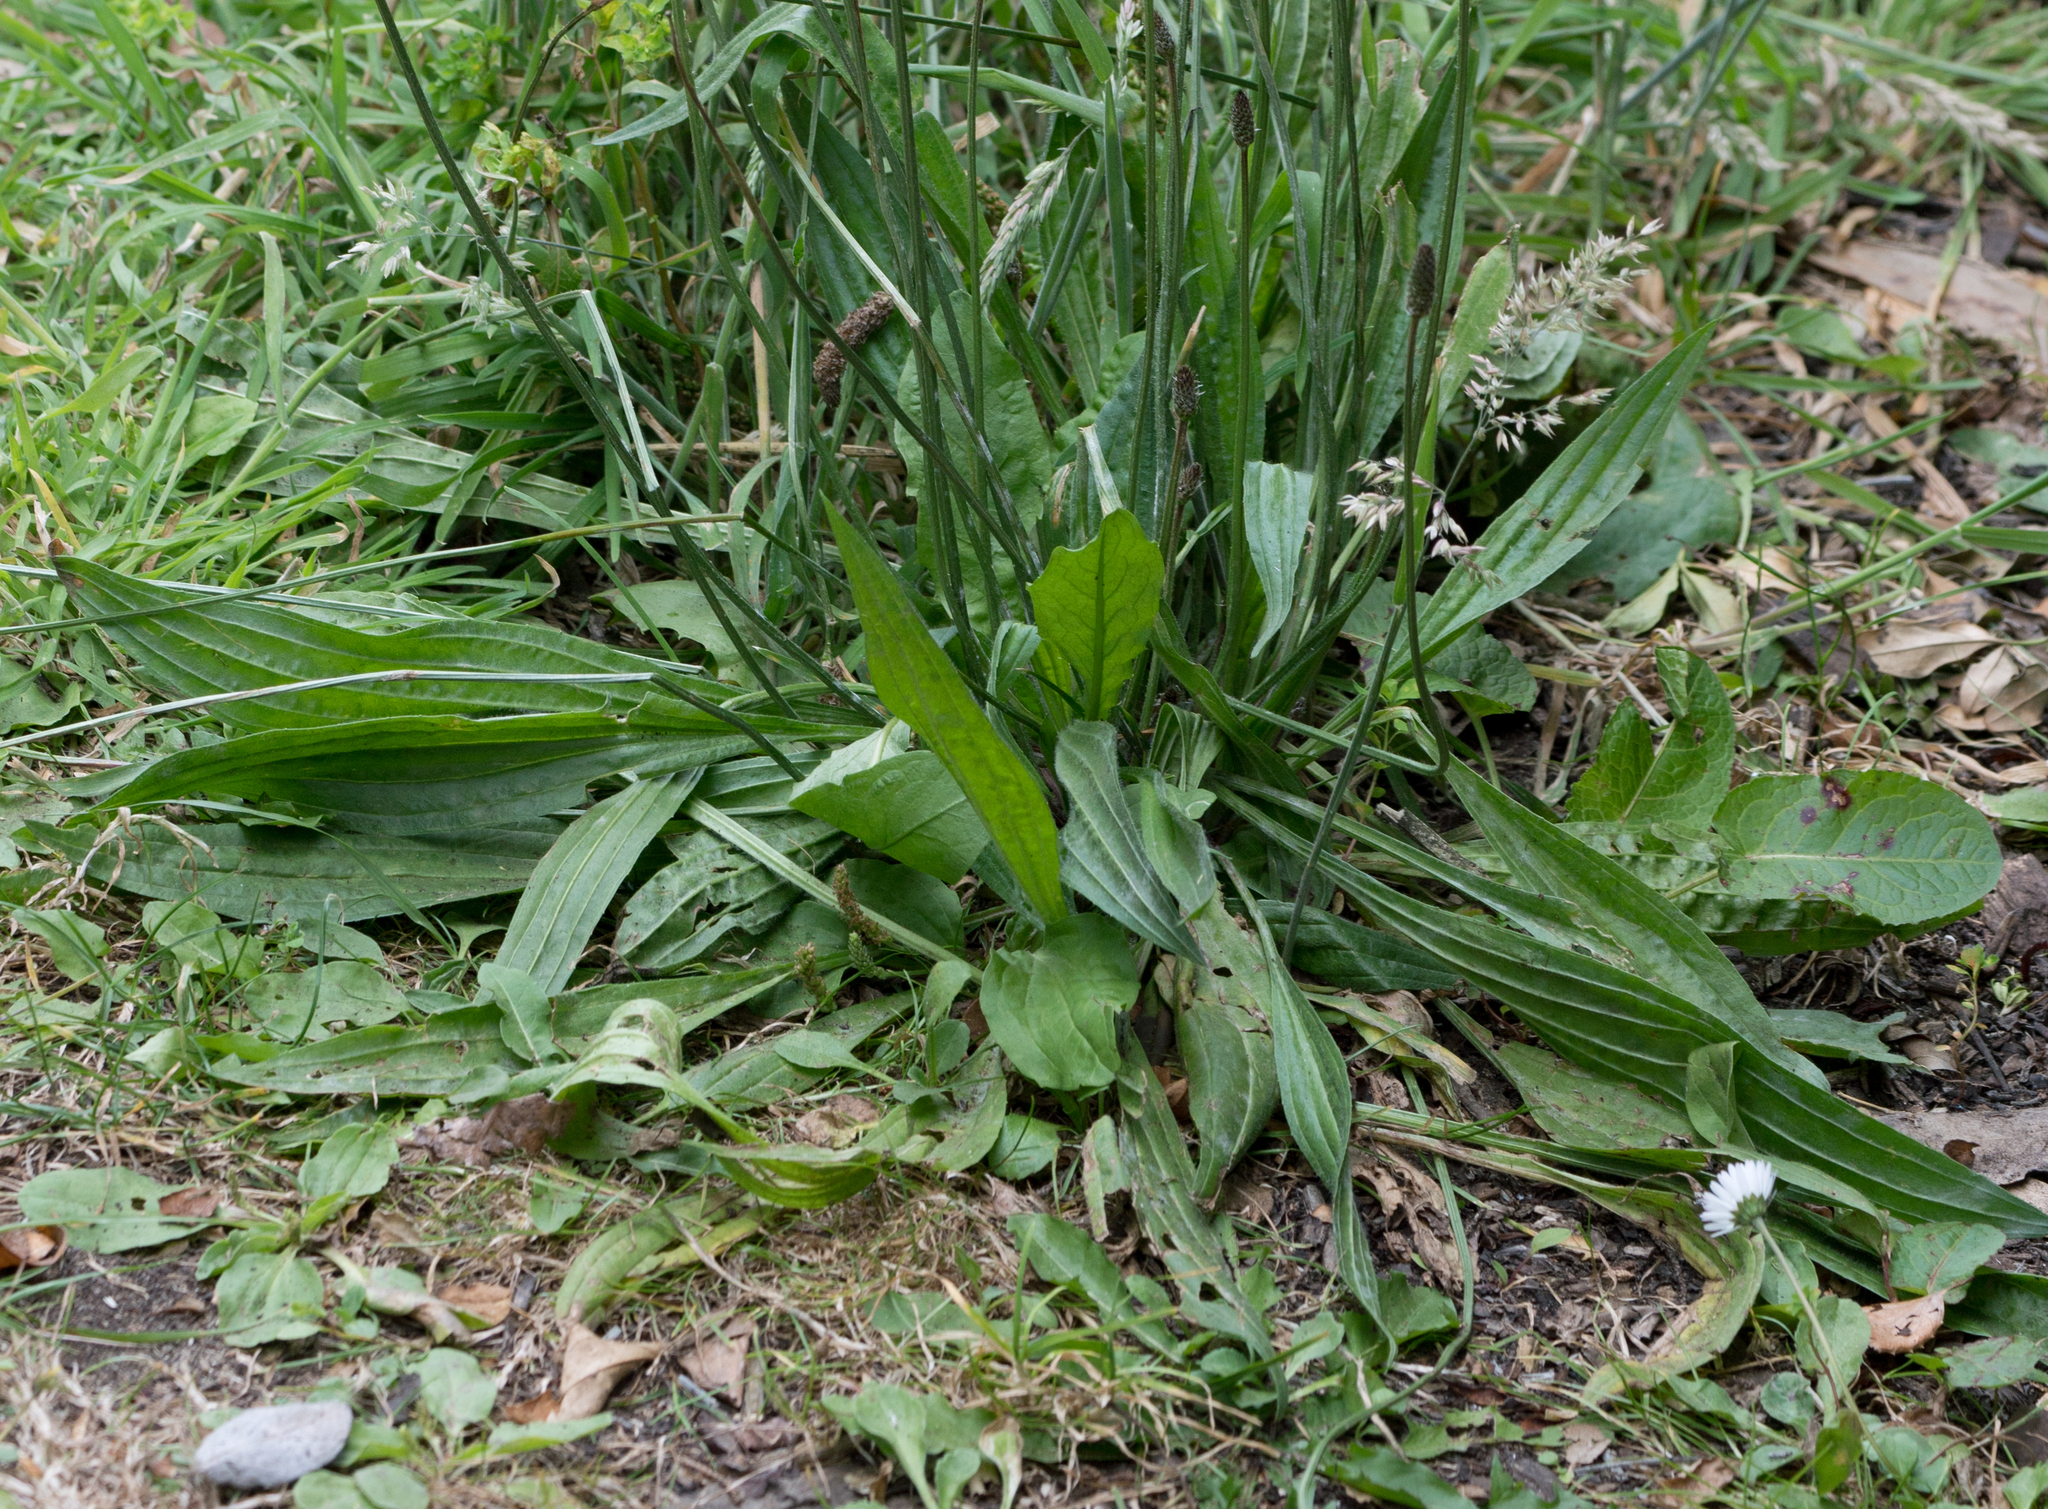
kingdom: Plantae
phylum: Tracheophyta
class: Magnoliopsida
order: Lamiales
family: Plantaginaceae
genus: Plantago
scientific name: Plantago lanceolata
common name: Ribwort plantain
